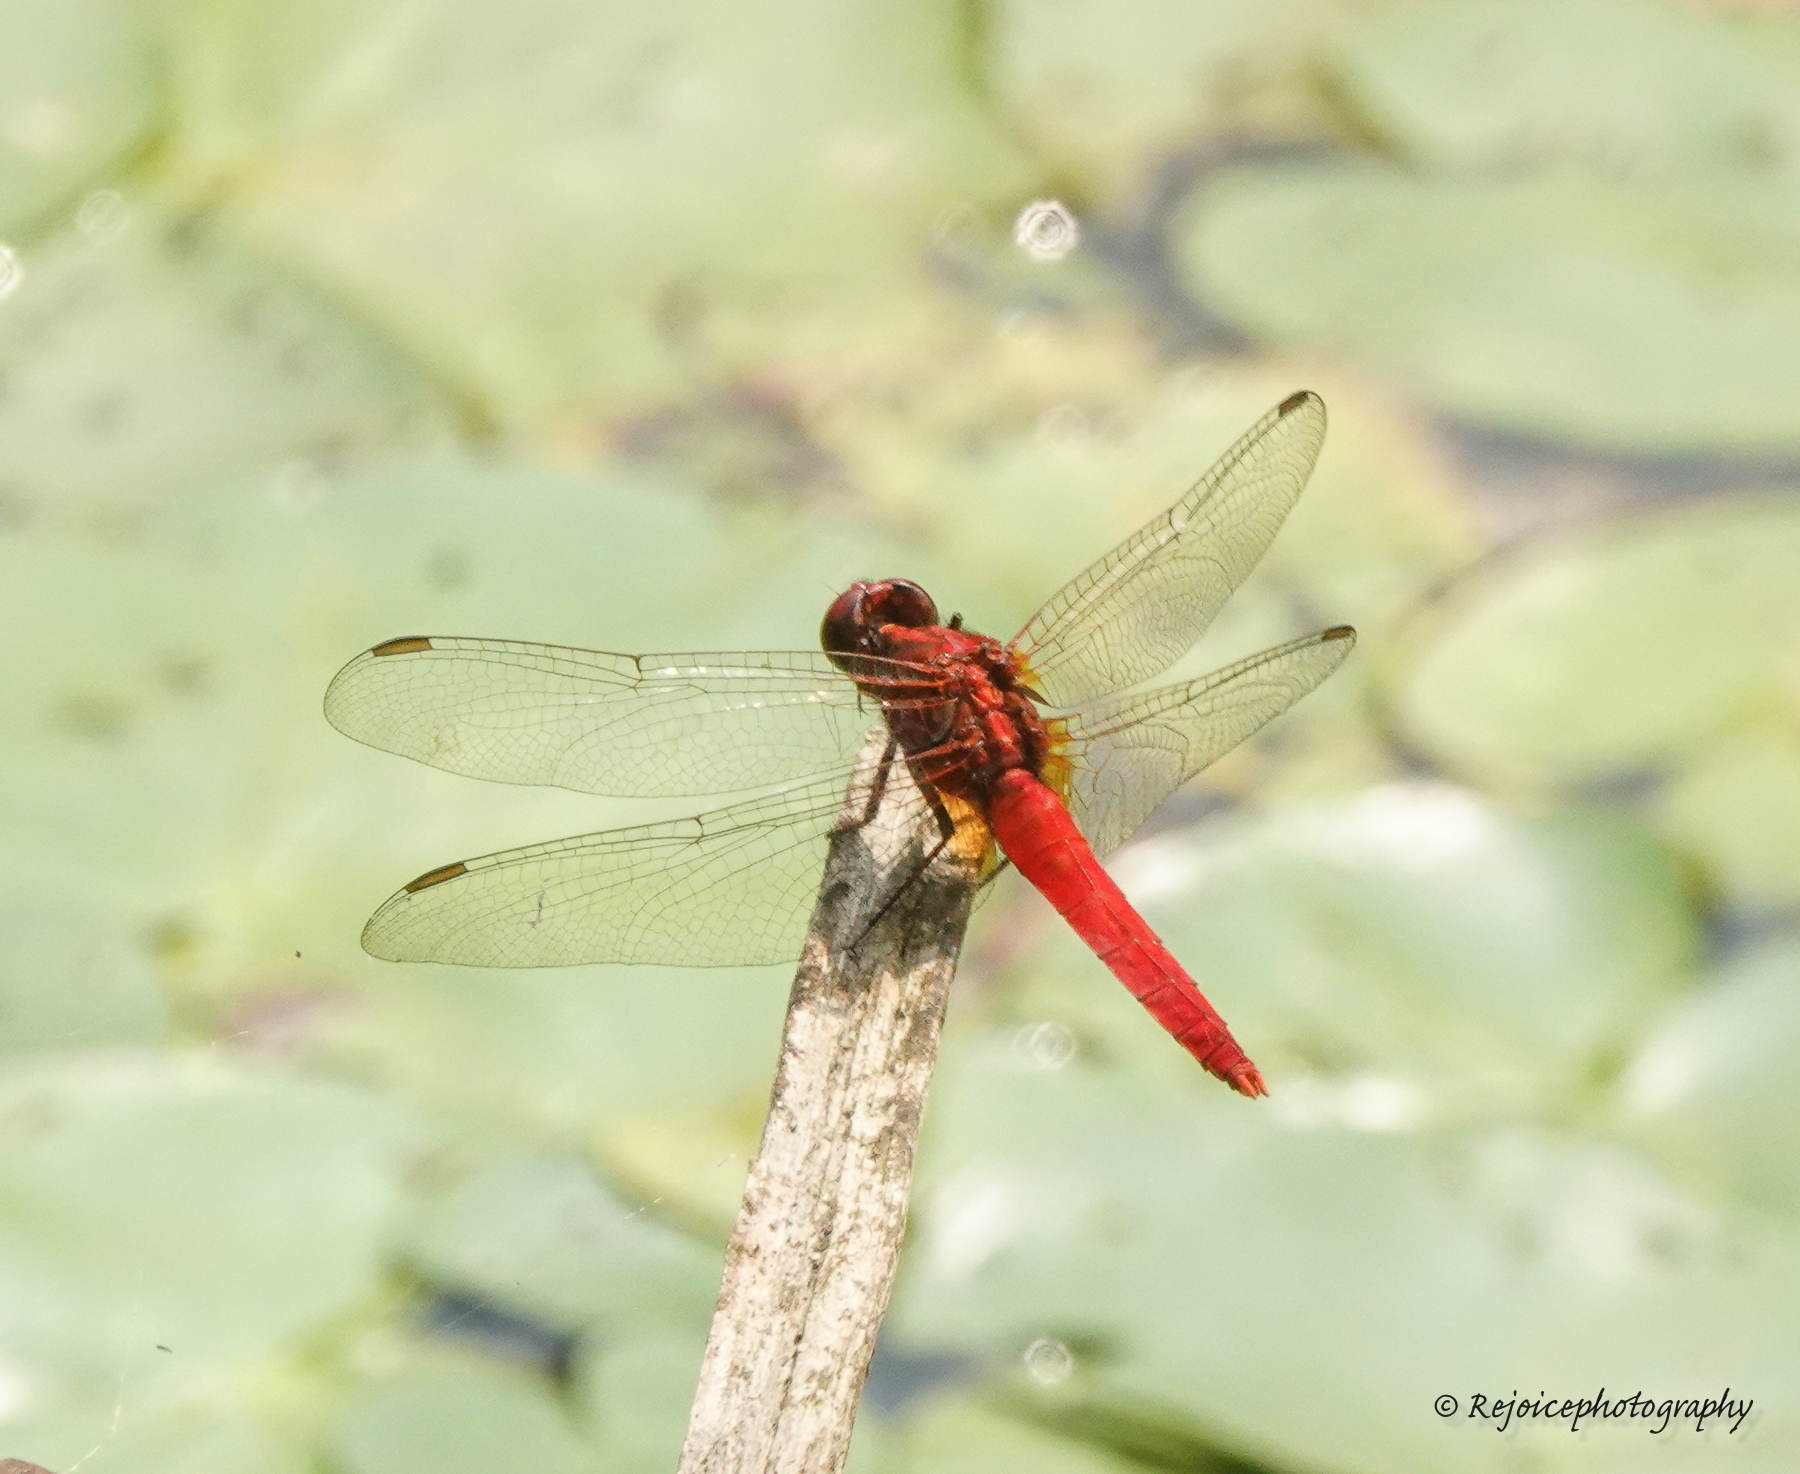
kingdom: Animalia
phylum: Arthropoda
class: Insecta
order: Odonata
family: Libellulidae
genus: Rhodothemis
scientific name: Rhodothemis rufa
